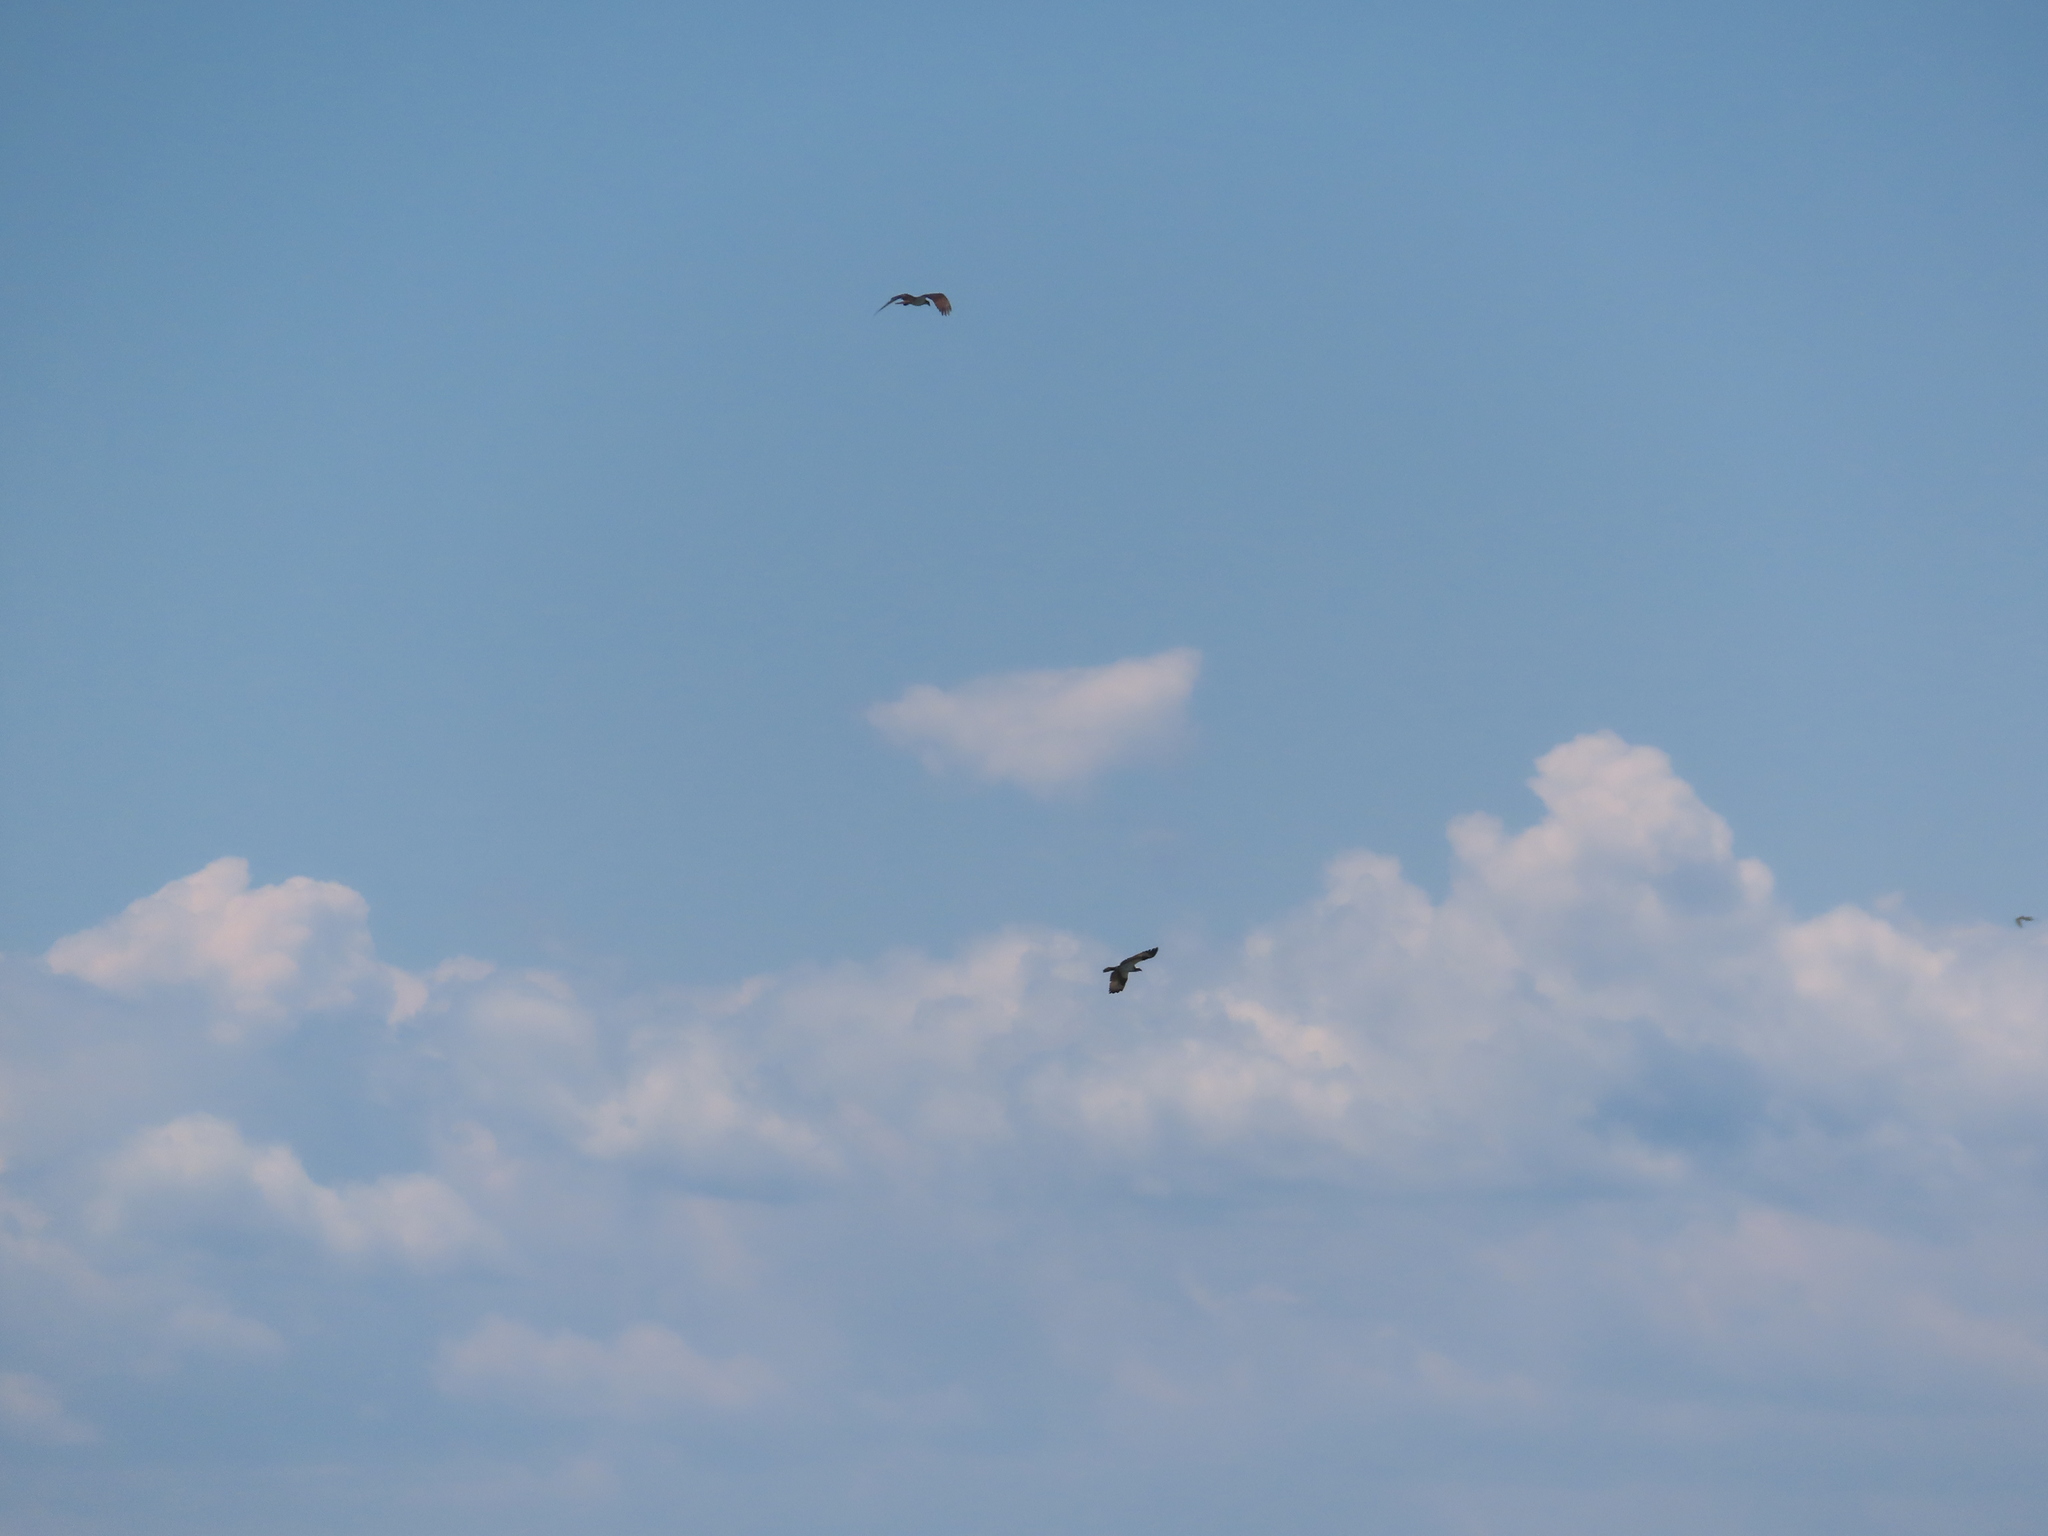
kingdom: Animalia
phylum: Chordata
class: Aves
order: Accipitriformes
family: Pandionidae
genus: Pandion
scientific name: Pandion haliaetus
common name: Osprey
